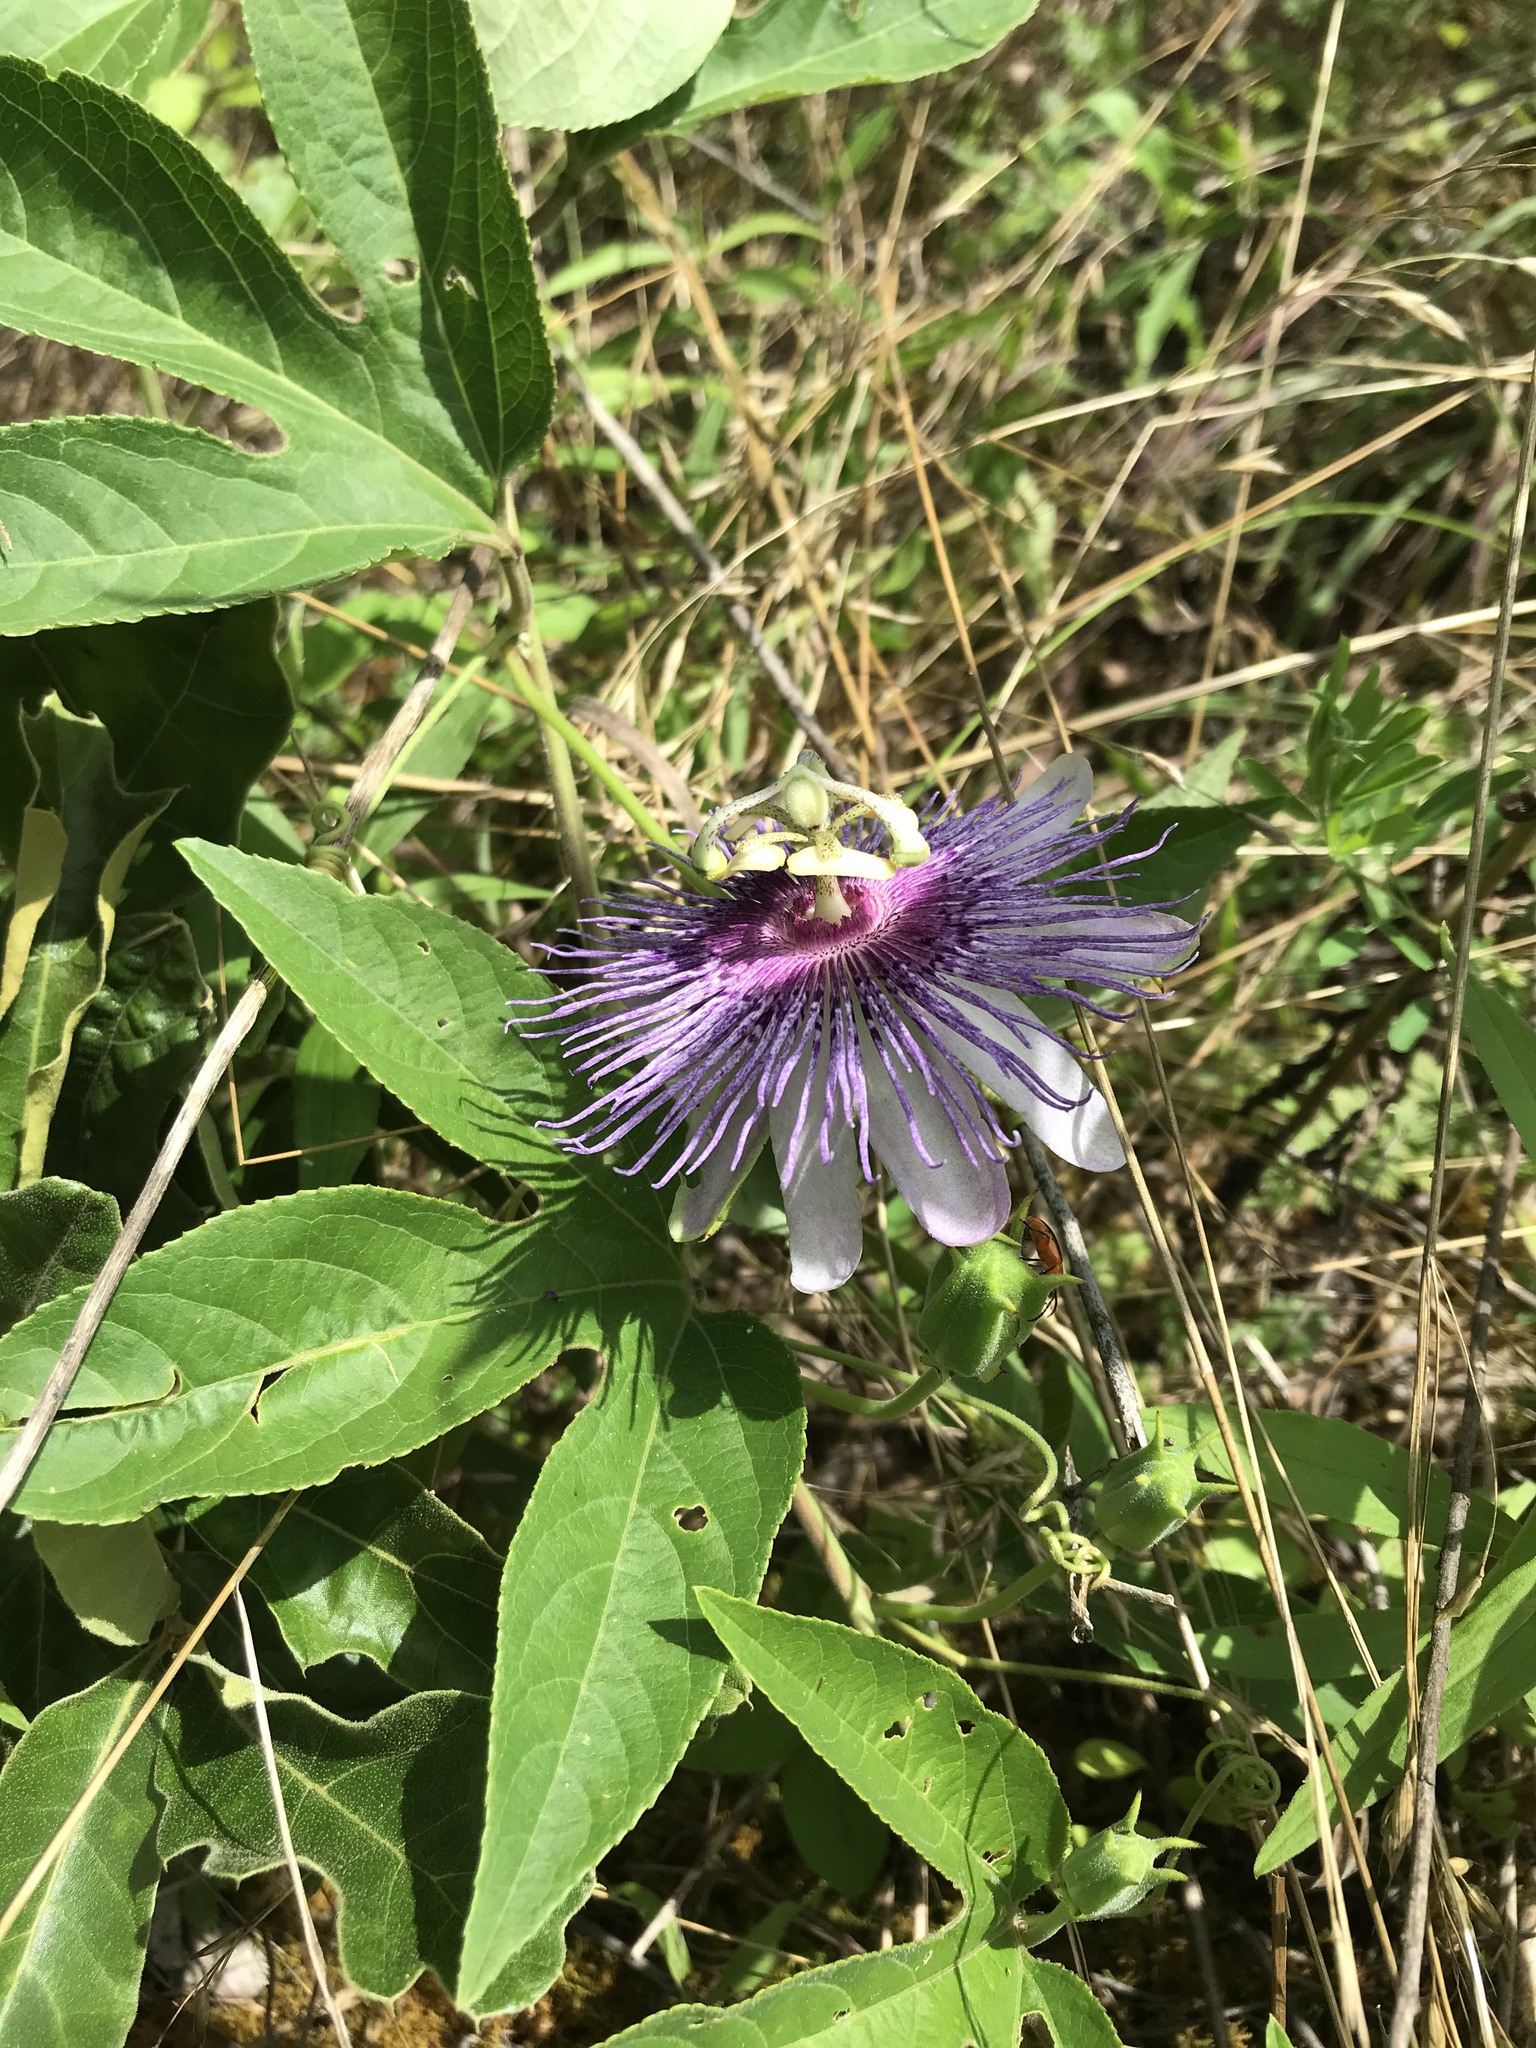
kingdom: Plantae
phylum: Tracheophyta
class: Magnoliopsida
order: Malpighiales
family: Passifloraceae
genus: Passiflora
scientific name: Passiflora incarnata
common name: Apricot-vine
